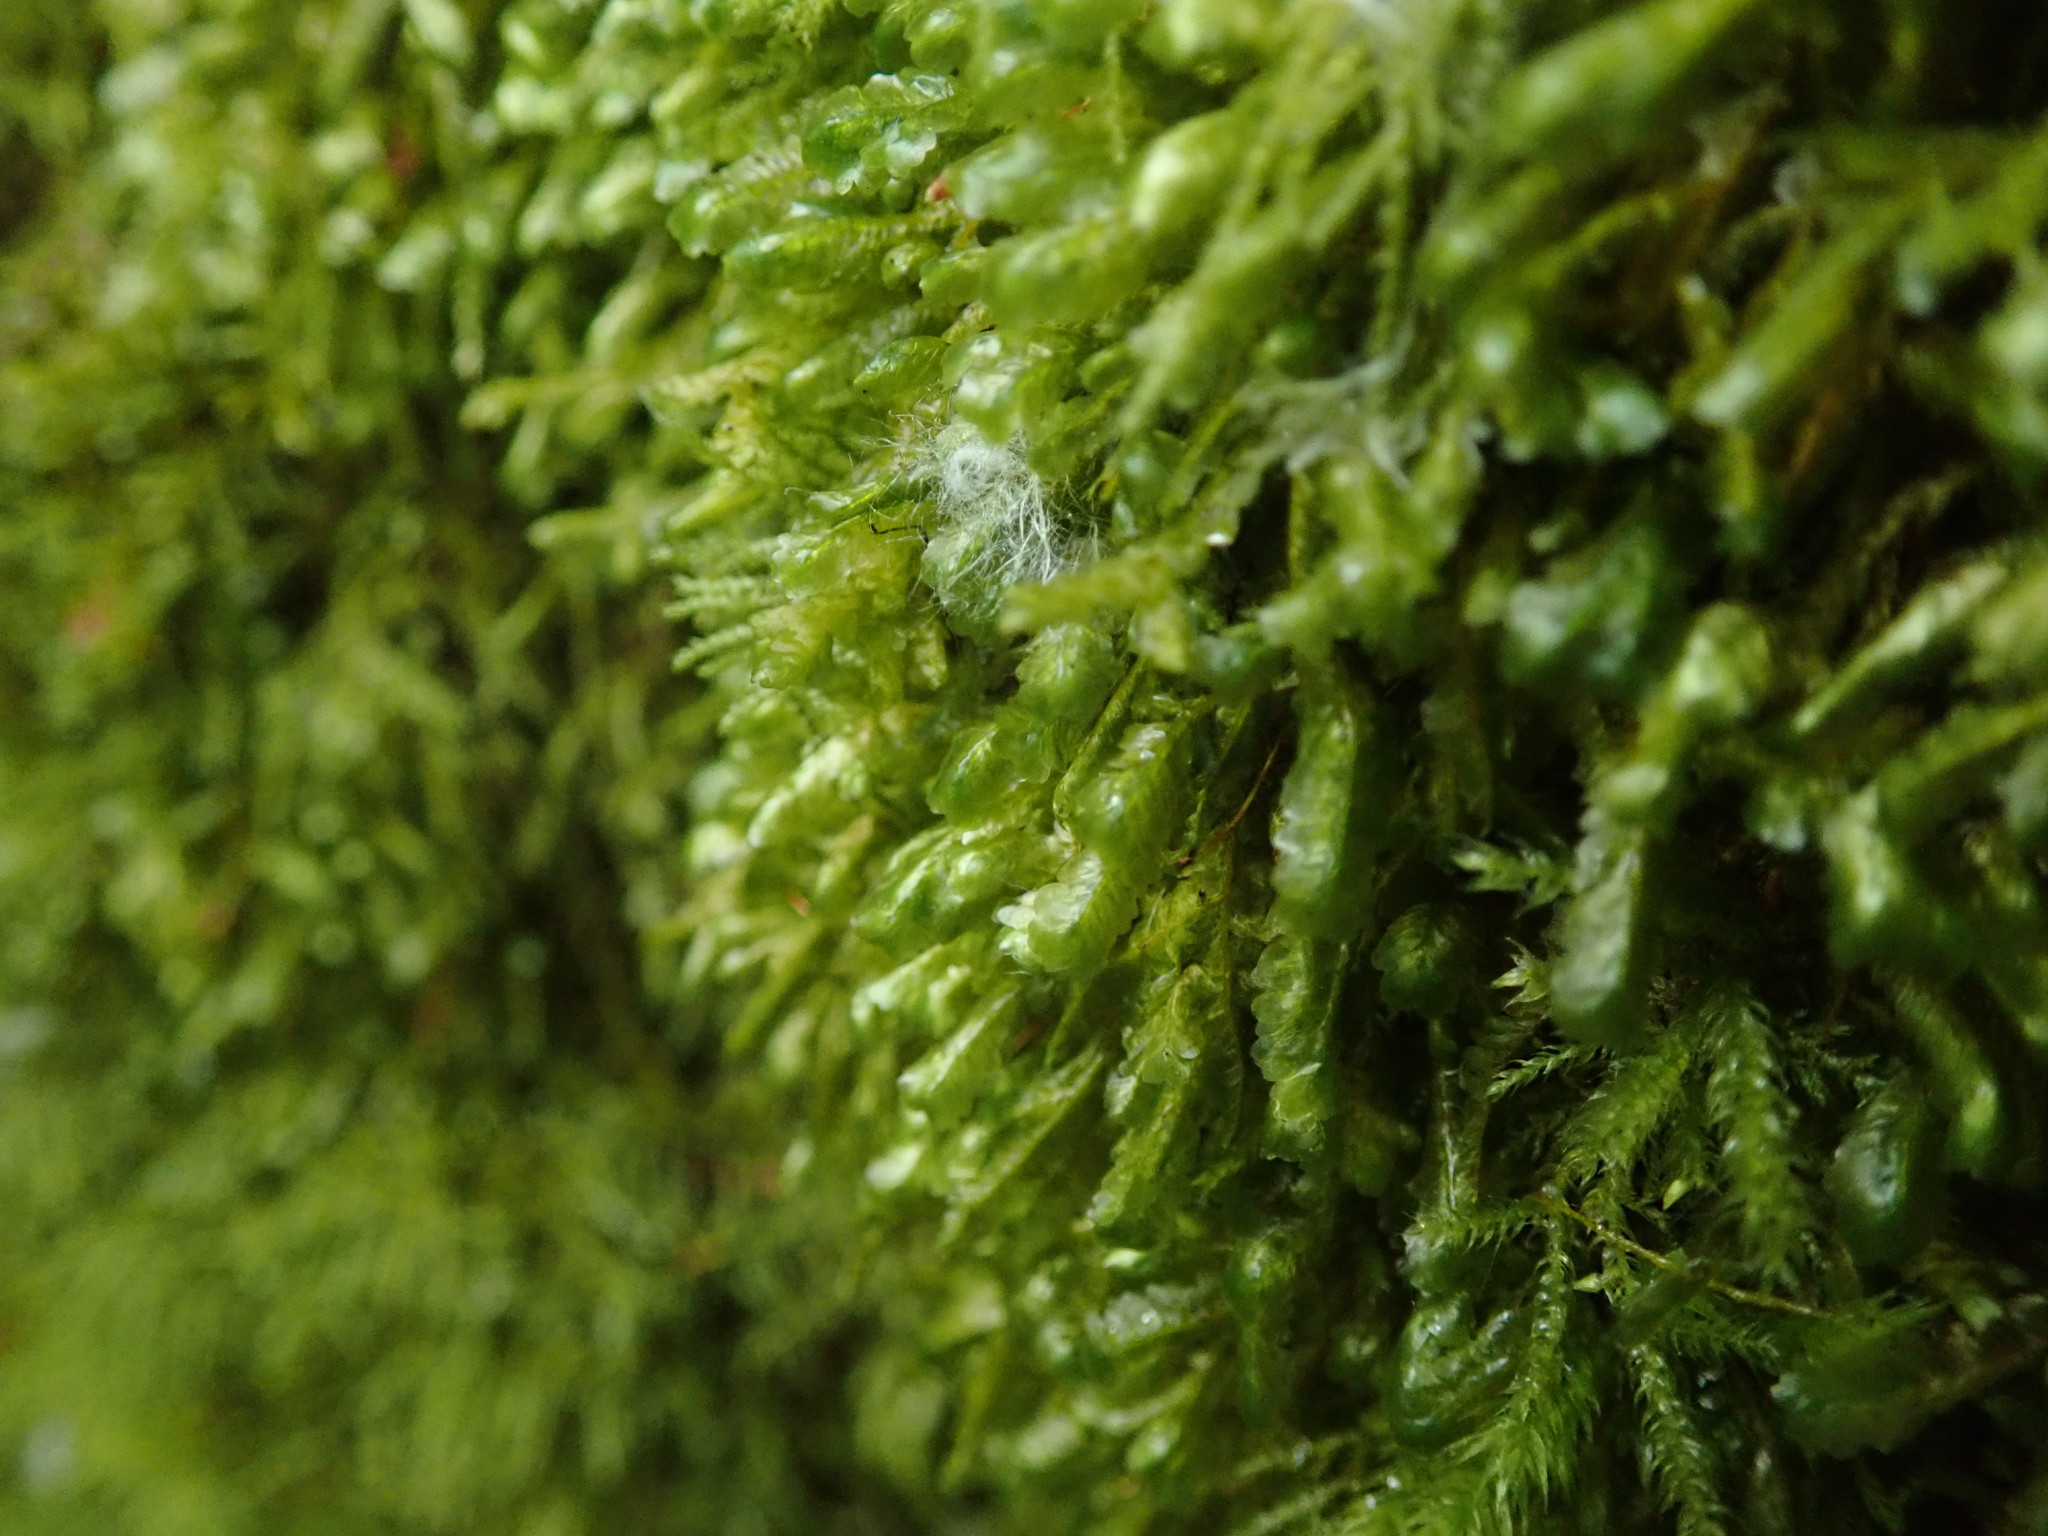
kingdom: Plantae
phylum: Bryophyta
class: Bryopsida
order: Hypnales
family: Neckeraceae
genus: Homalia
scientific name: Homalia trichomanoides
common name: Lime homalia moss
